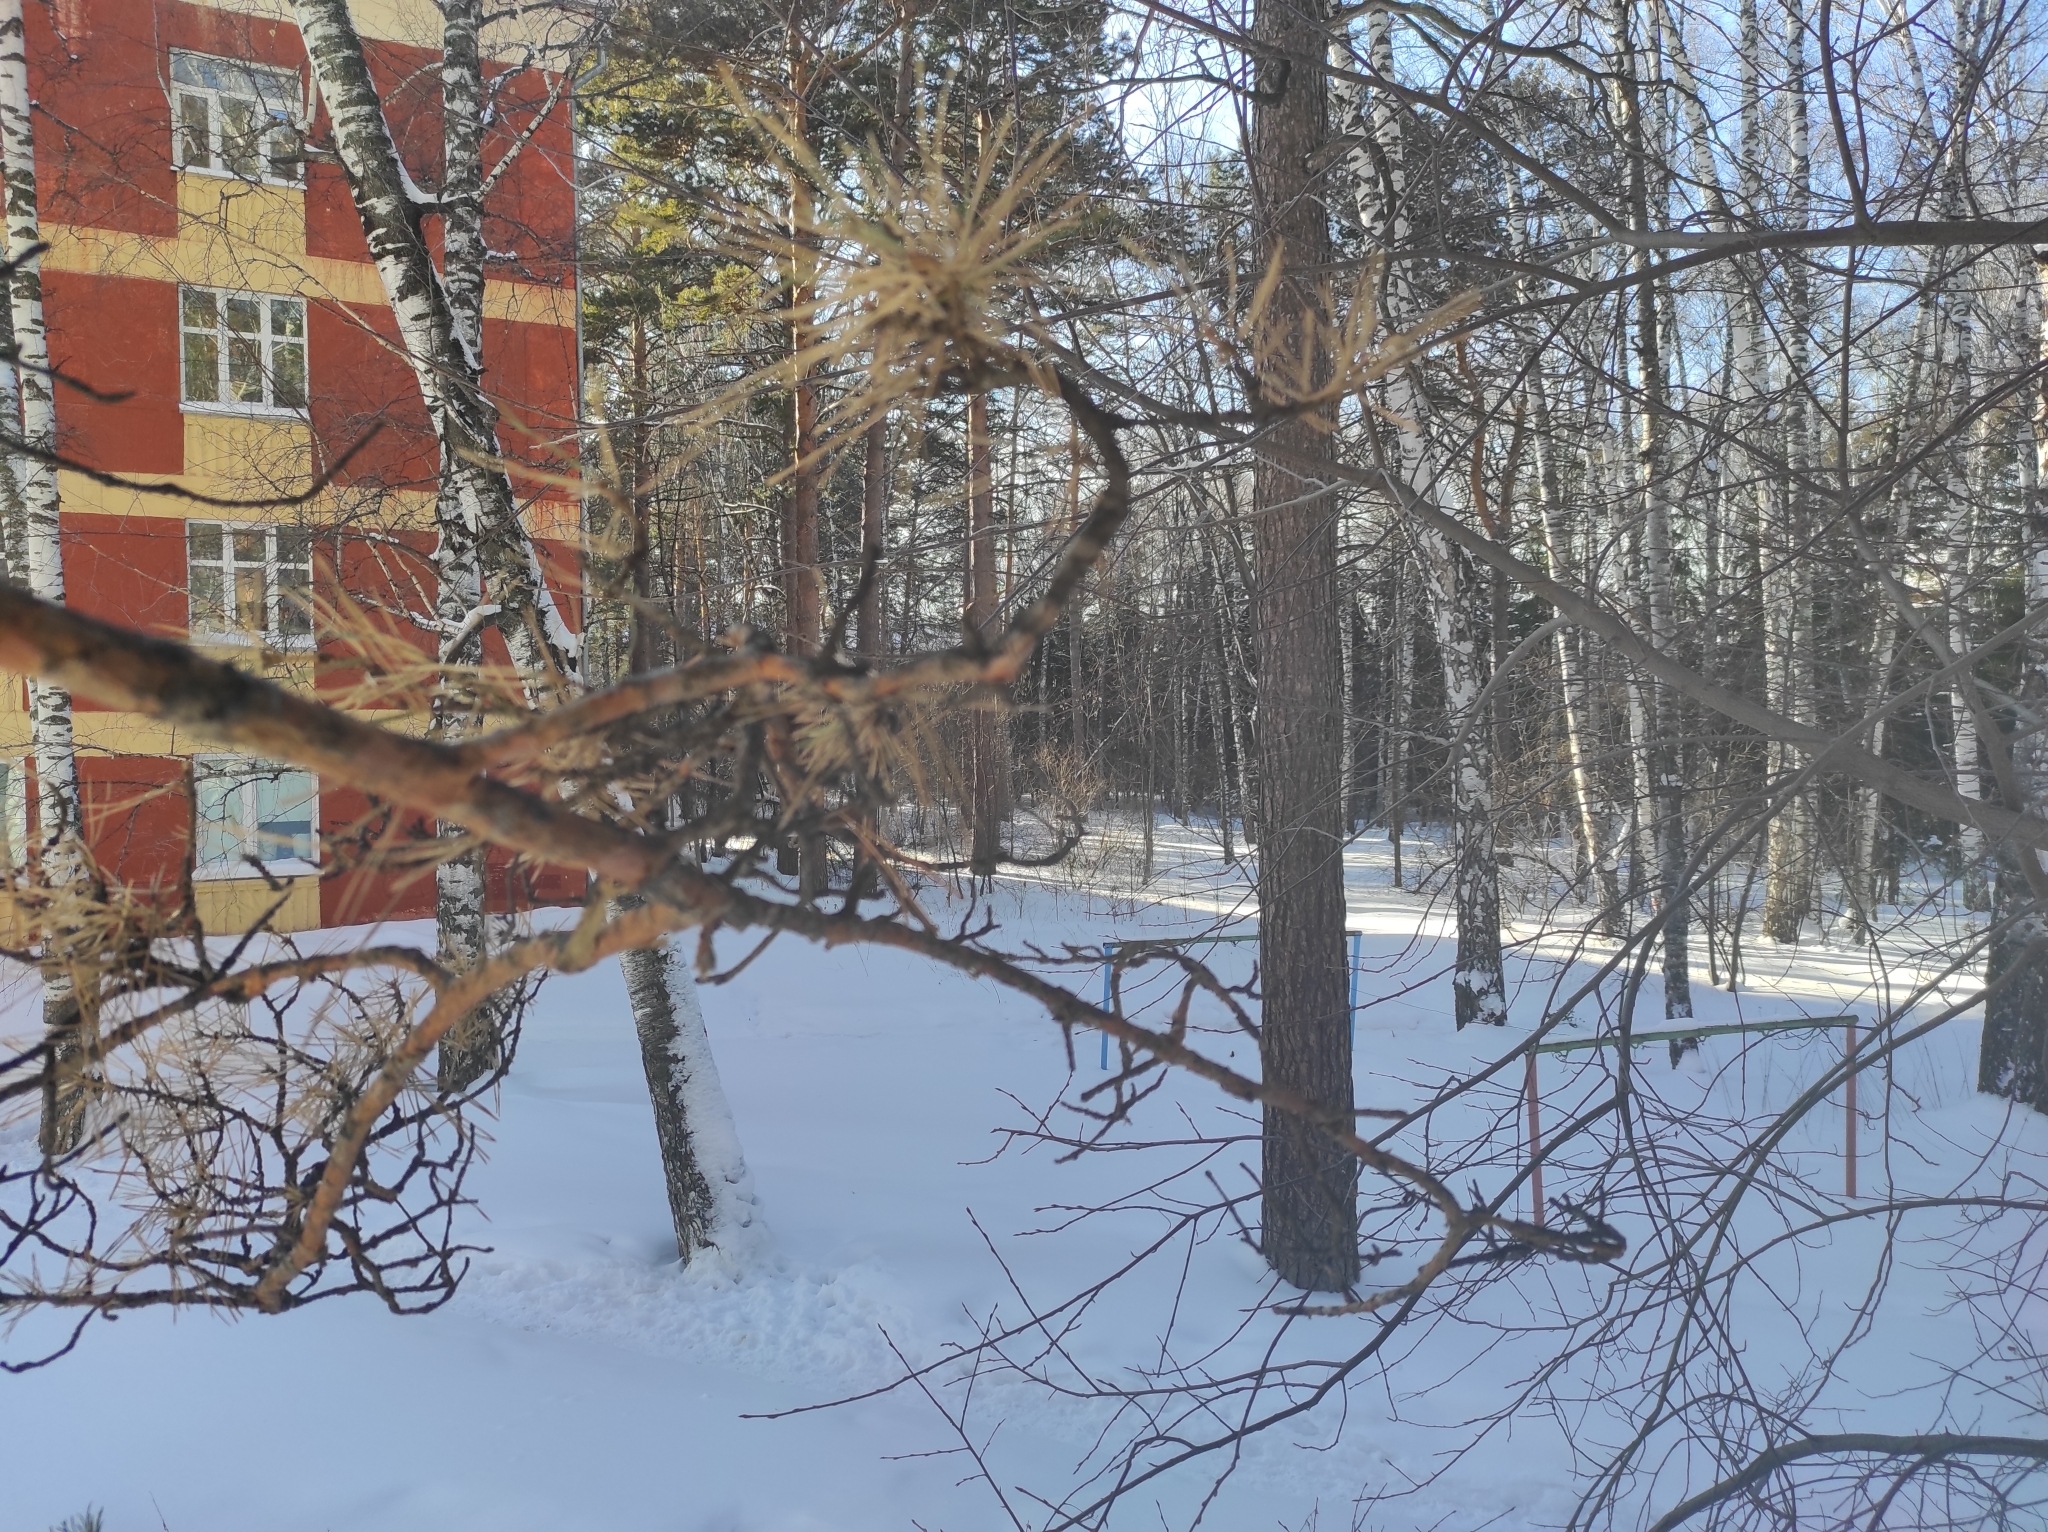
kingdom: Plantae
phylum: Tracheophyta
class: Pinopsida
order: Pinales
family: Pinaceae
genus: Pinus
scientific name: Pinus sylvestris
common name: Scots pine
